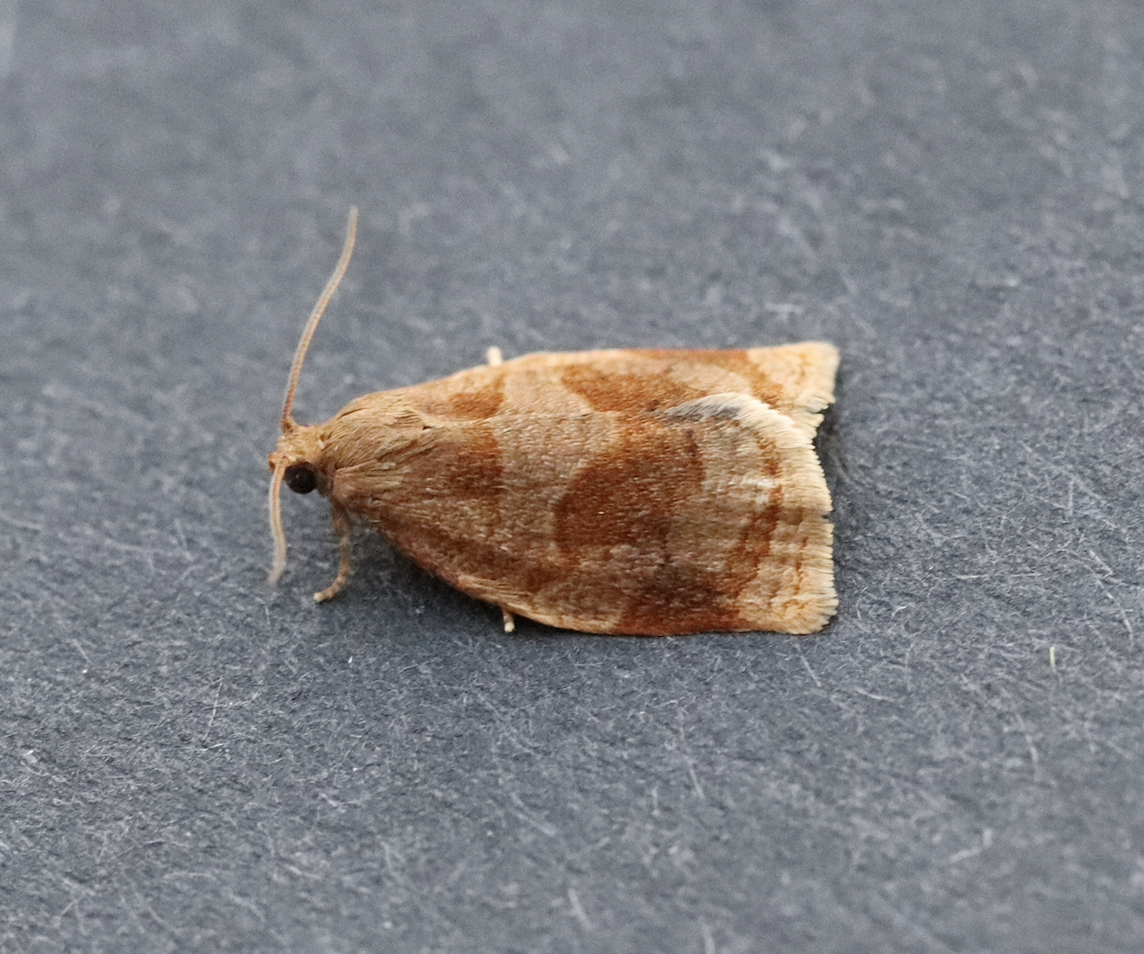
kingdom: Animalia
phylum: Arthropoda
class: Insecta
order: Lepidoptera
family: Tortricidae
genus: Archips
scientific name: Archips rosana
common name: Rose tortrix
